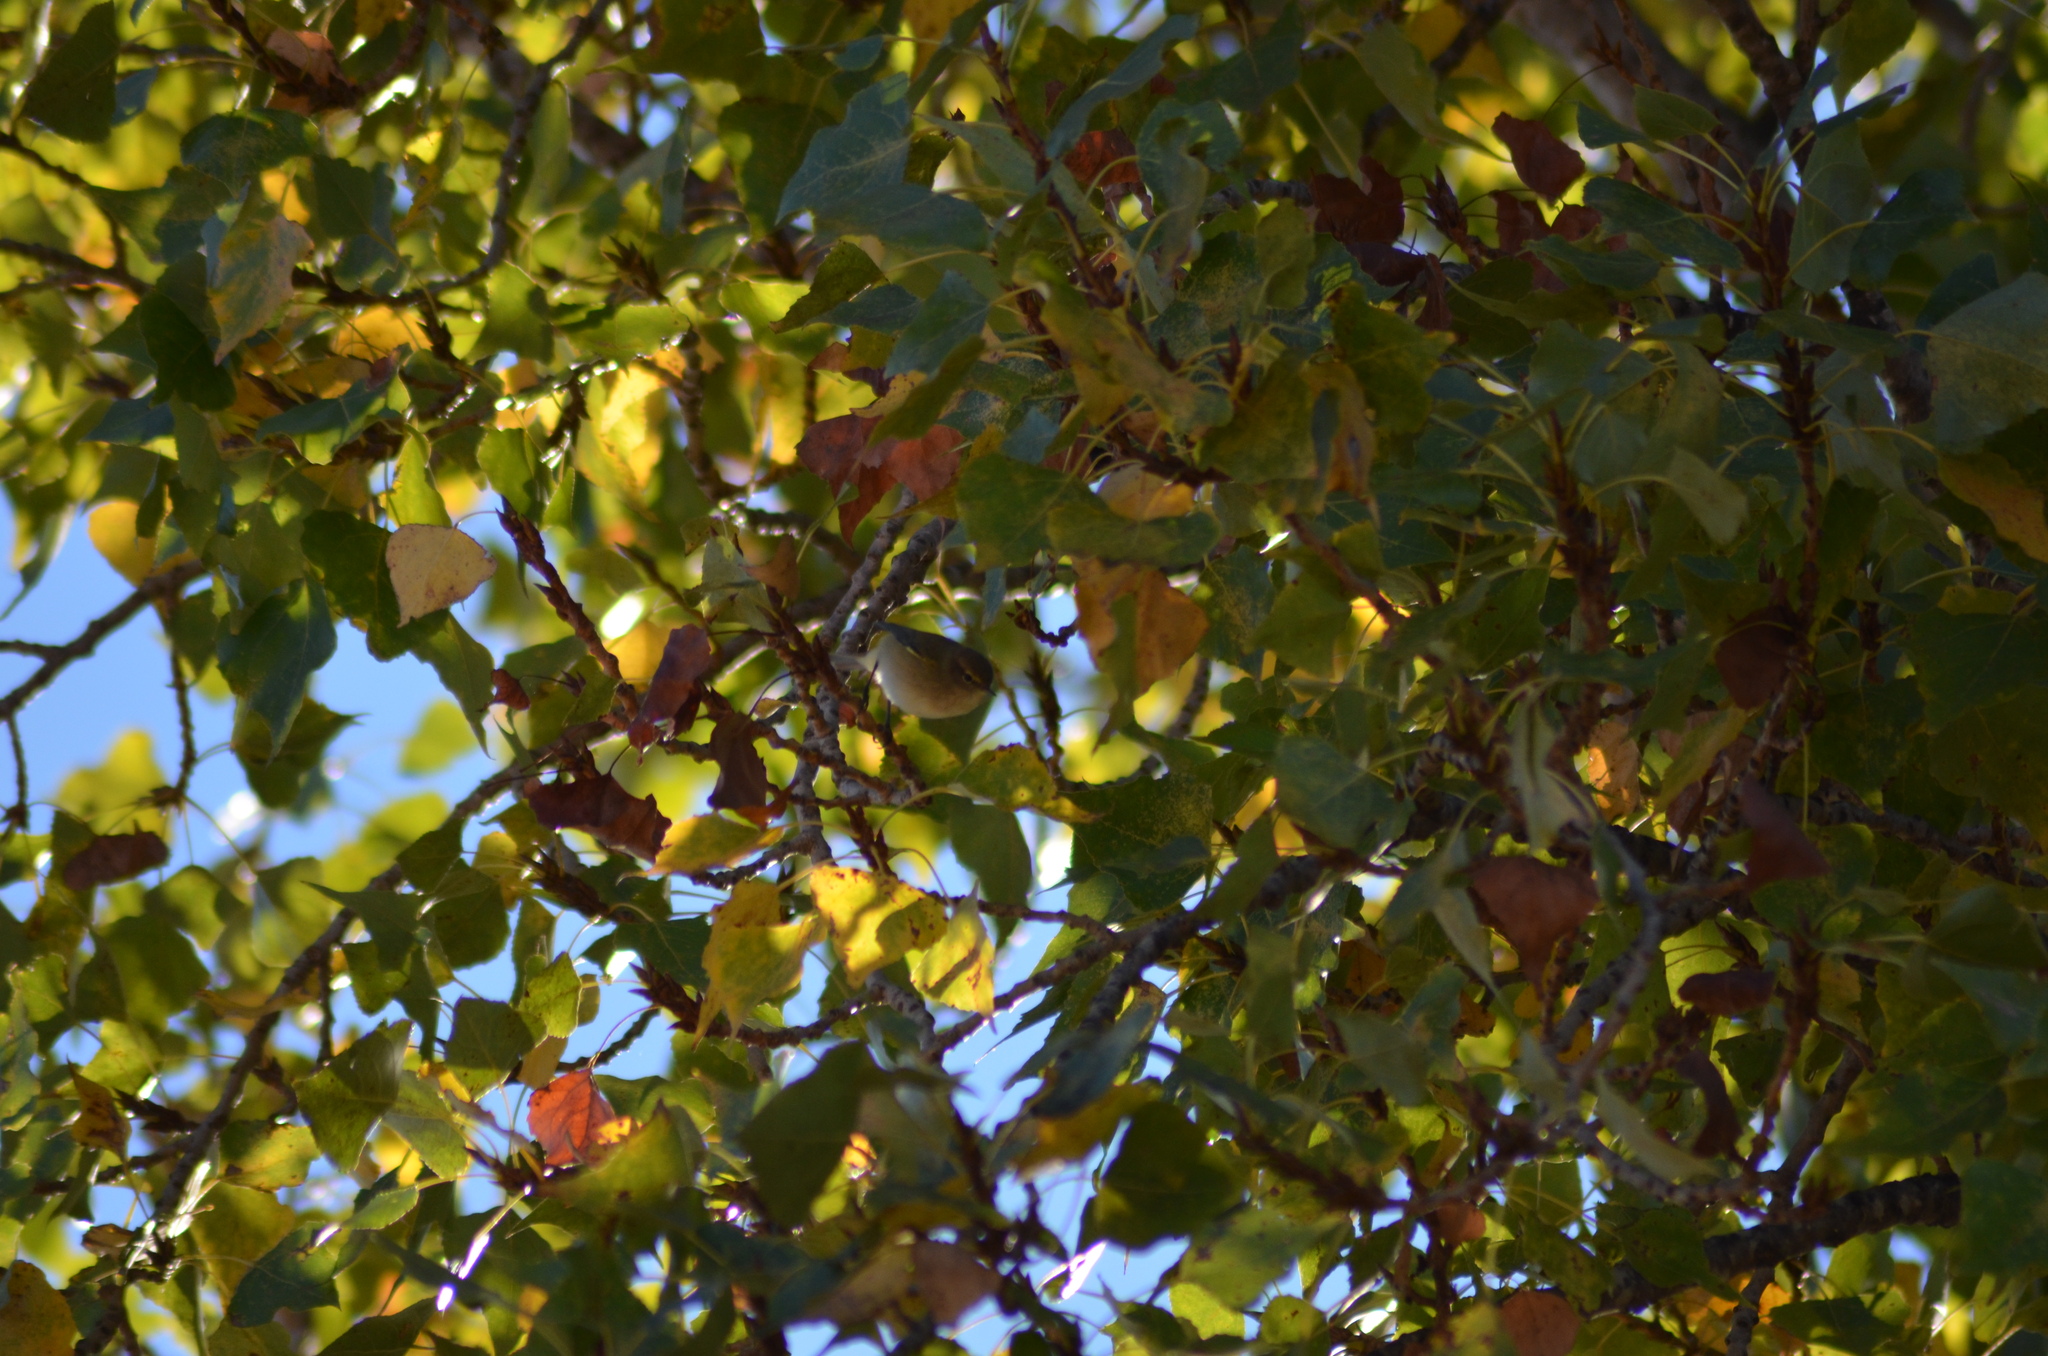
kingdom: Animalia
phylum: Chordata
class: Aves
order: Passeriformes
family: Phylloscopidae
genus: Phylloscopus
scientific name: Phylloscopus collybita
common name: Common chiffchaff
